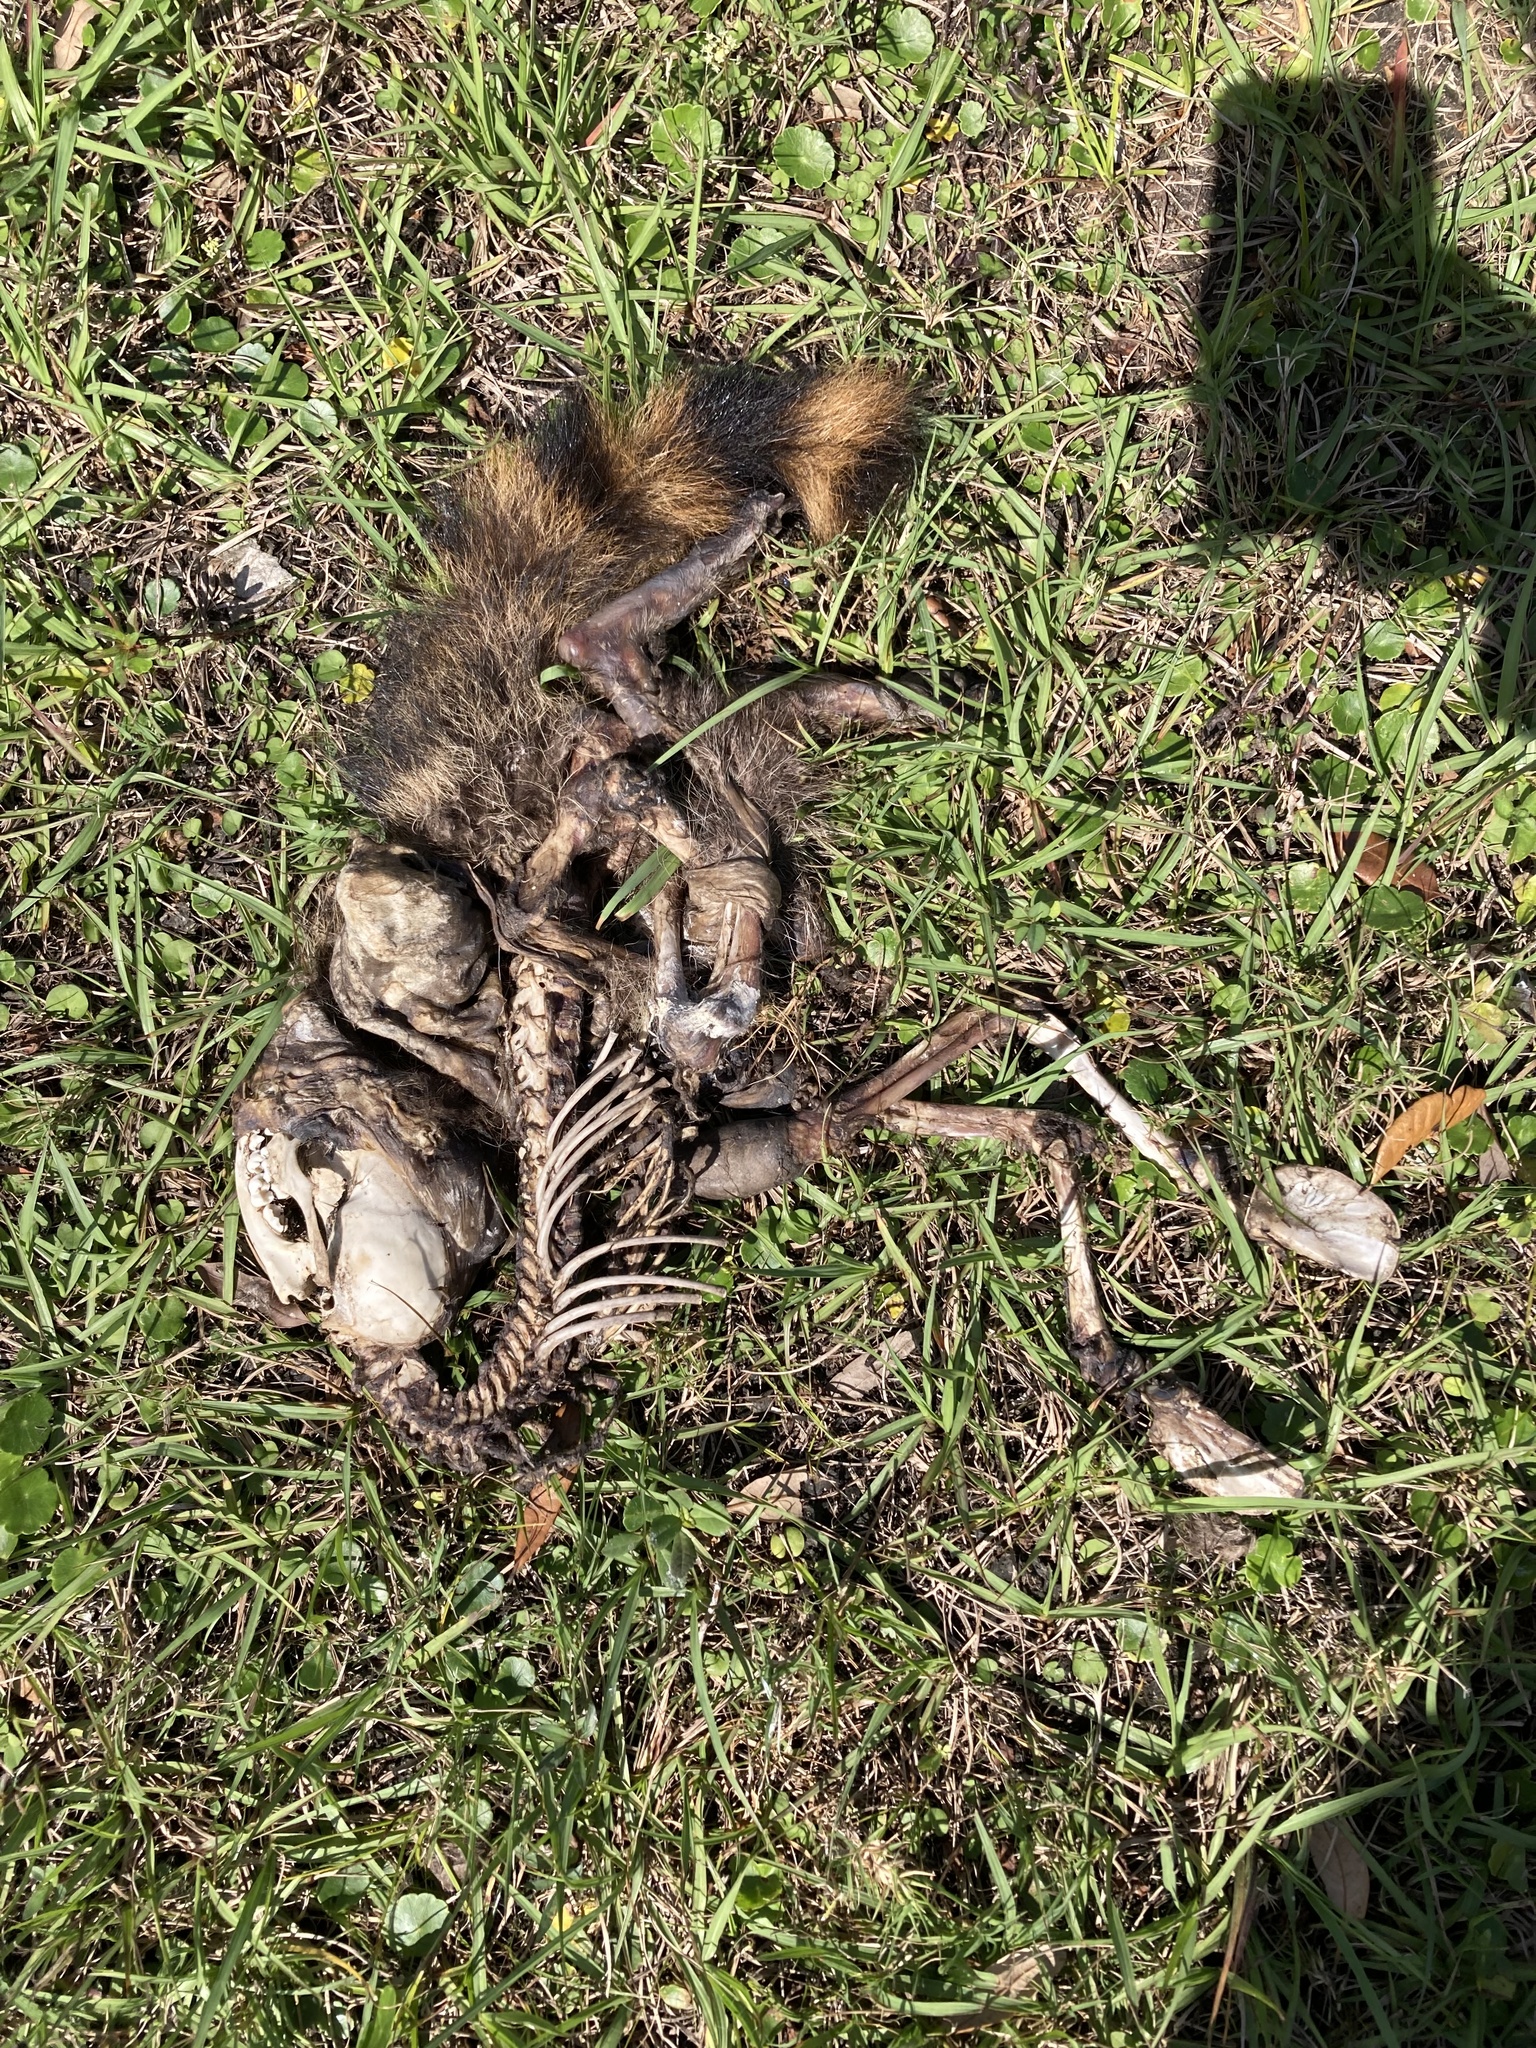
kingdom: Animalia
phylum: Chordata
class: Mammalia
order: Carnivora
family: Procyonidae
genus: Procyon
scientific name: Procyon lotor
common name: Raccoon
